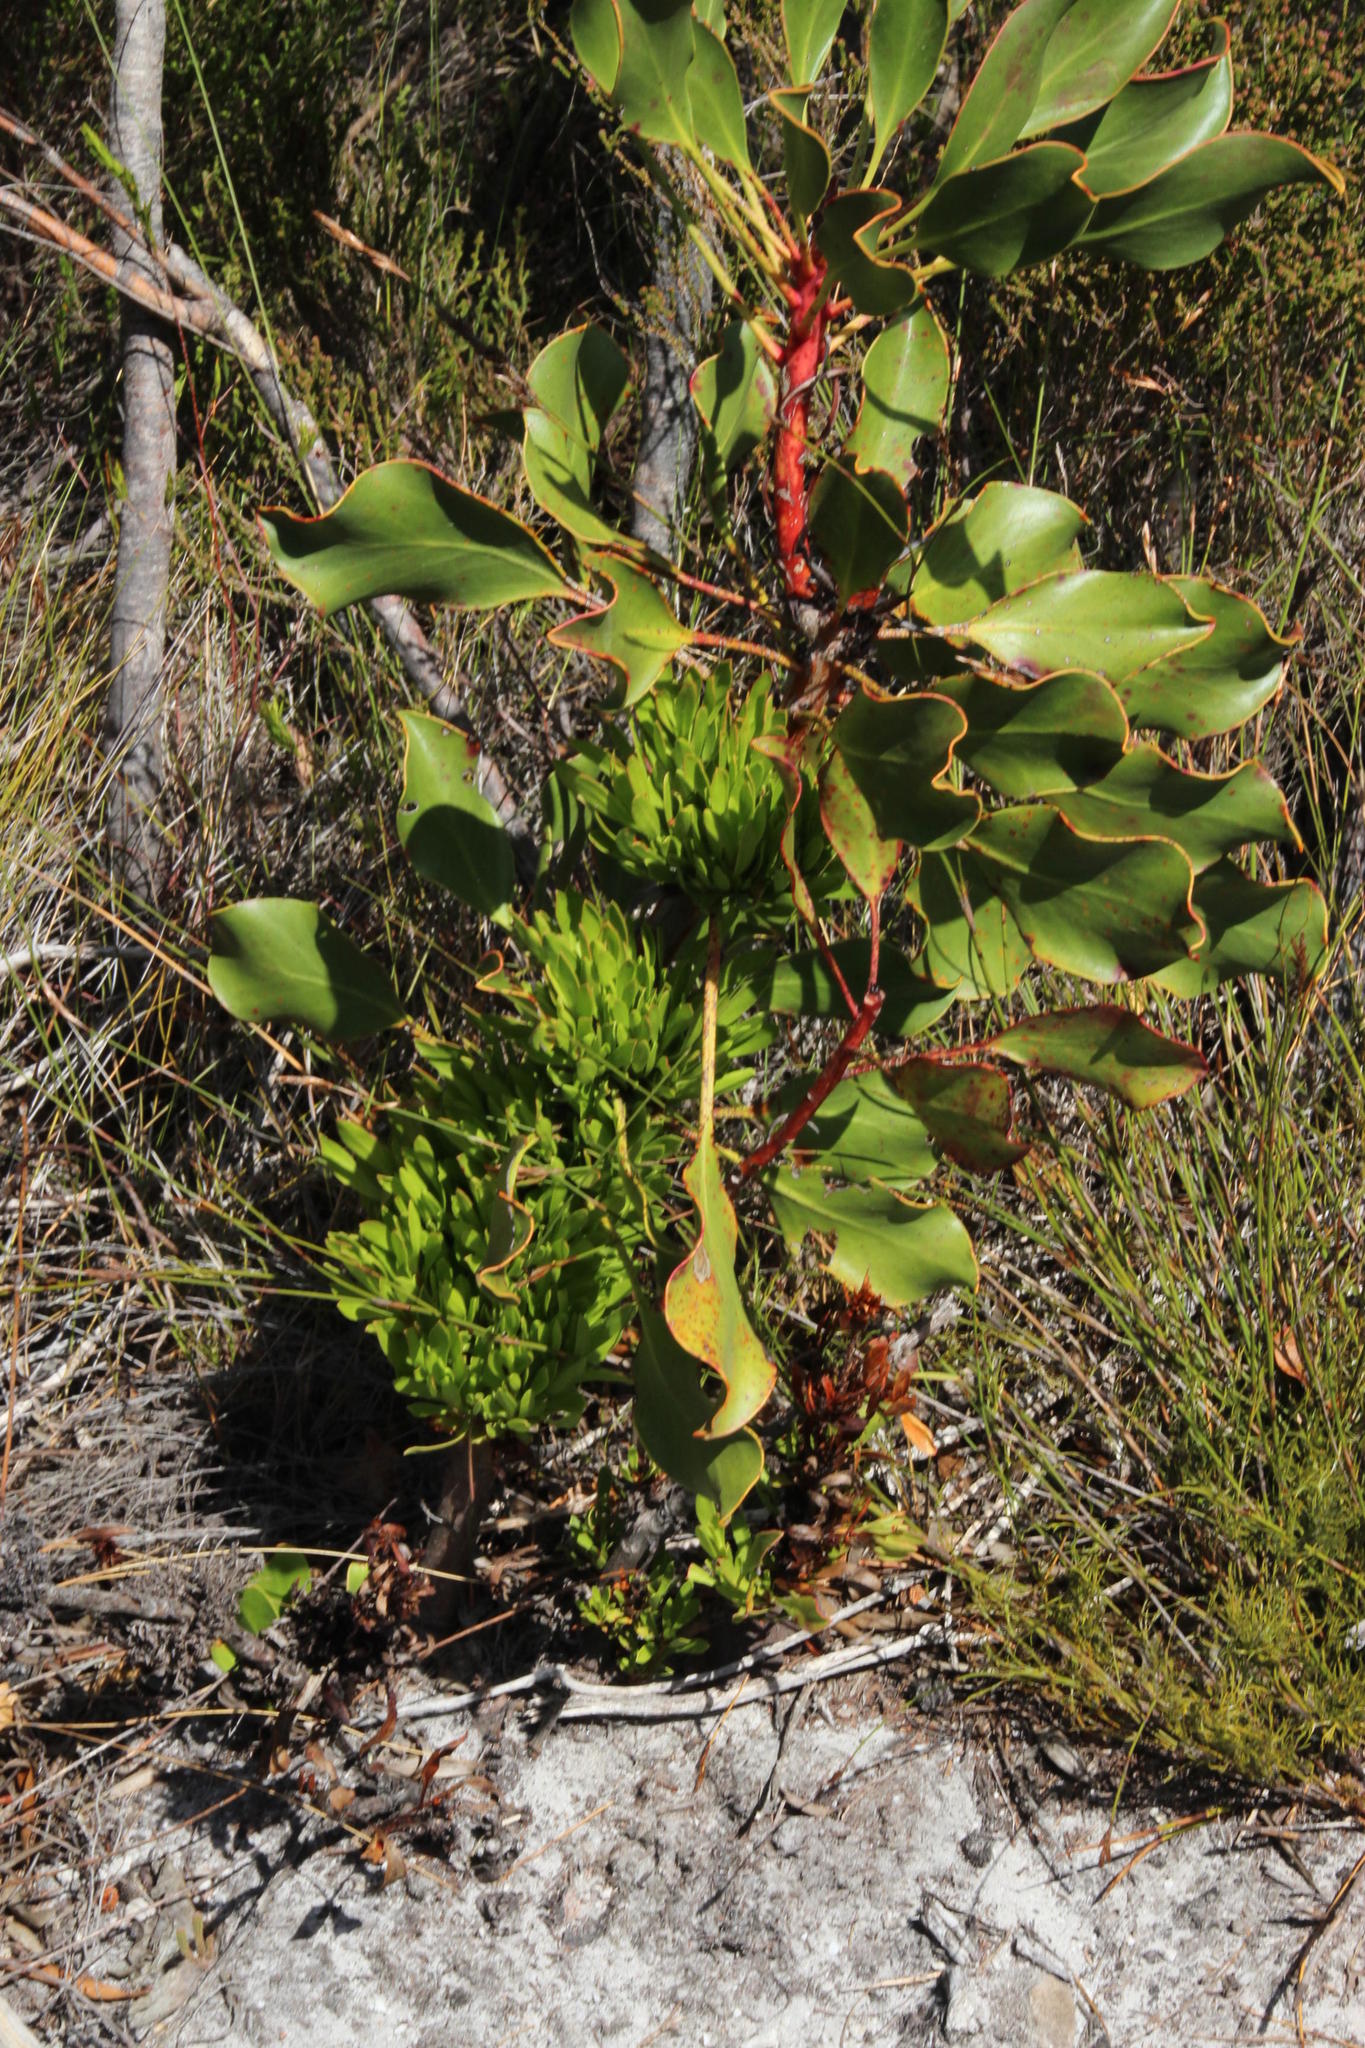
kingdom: Plantae
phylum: Tracheophyta
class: Magnoliopsida
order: Proteales
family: Proteaceae
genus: Protea
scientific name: Protea cynaroides
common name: King protea
